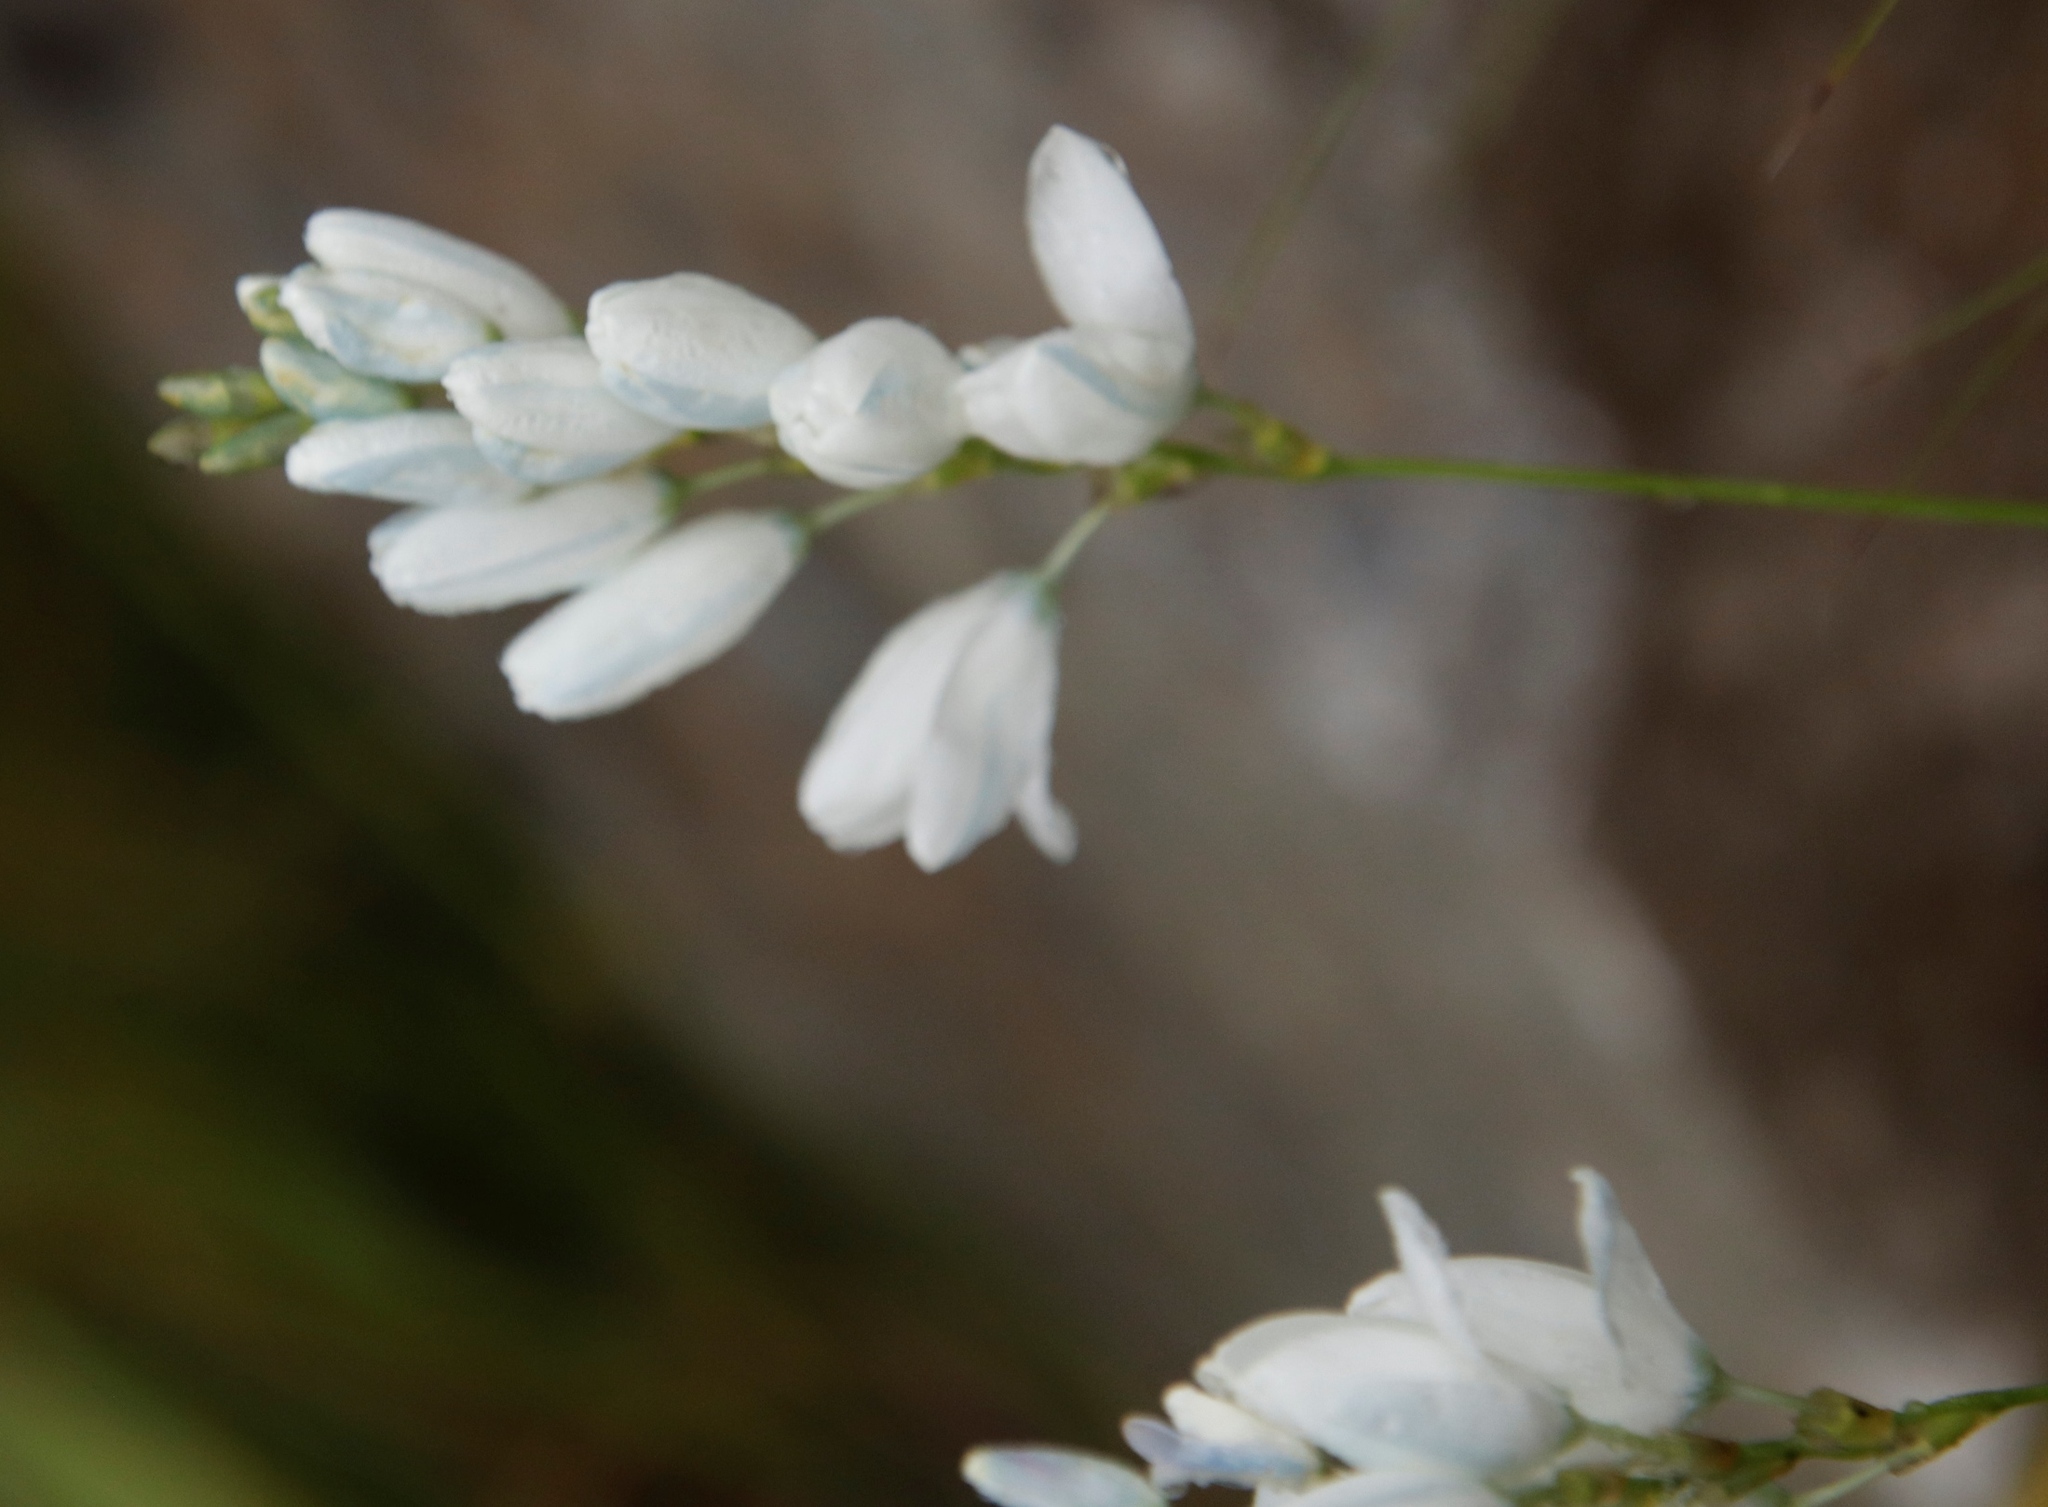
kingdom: Plantae
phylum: Tracheophyta
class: Liliopsida
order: Asparagales
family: Iridaceae
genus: Ixia
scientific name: Ixia polystachya
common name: White-and-yellow-flower cornlily
